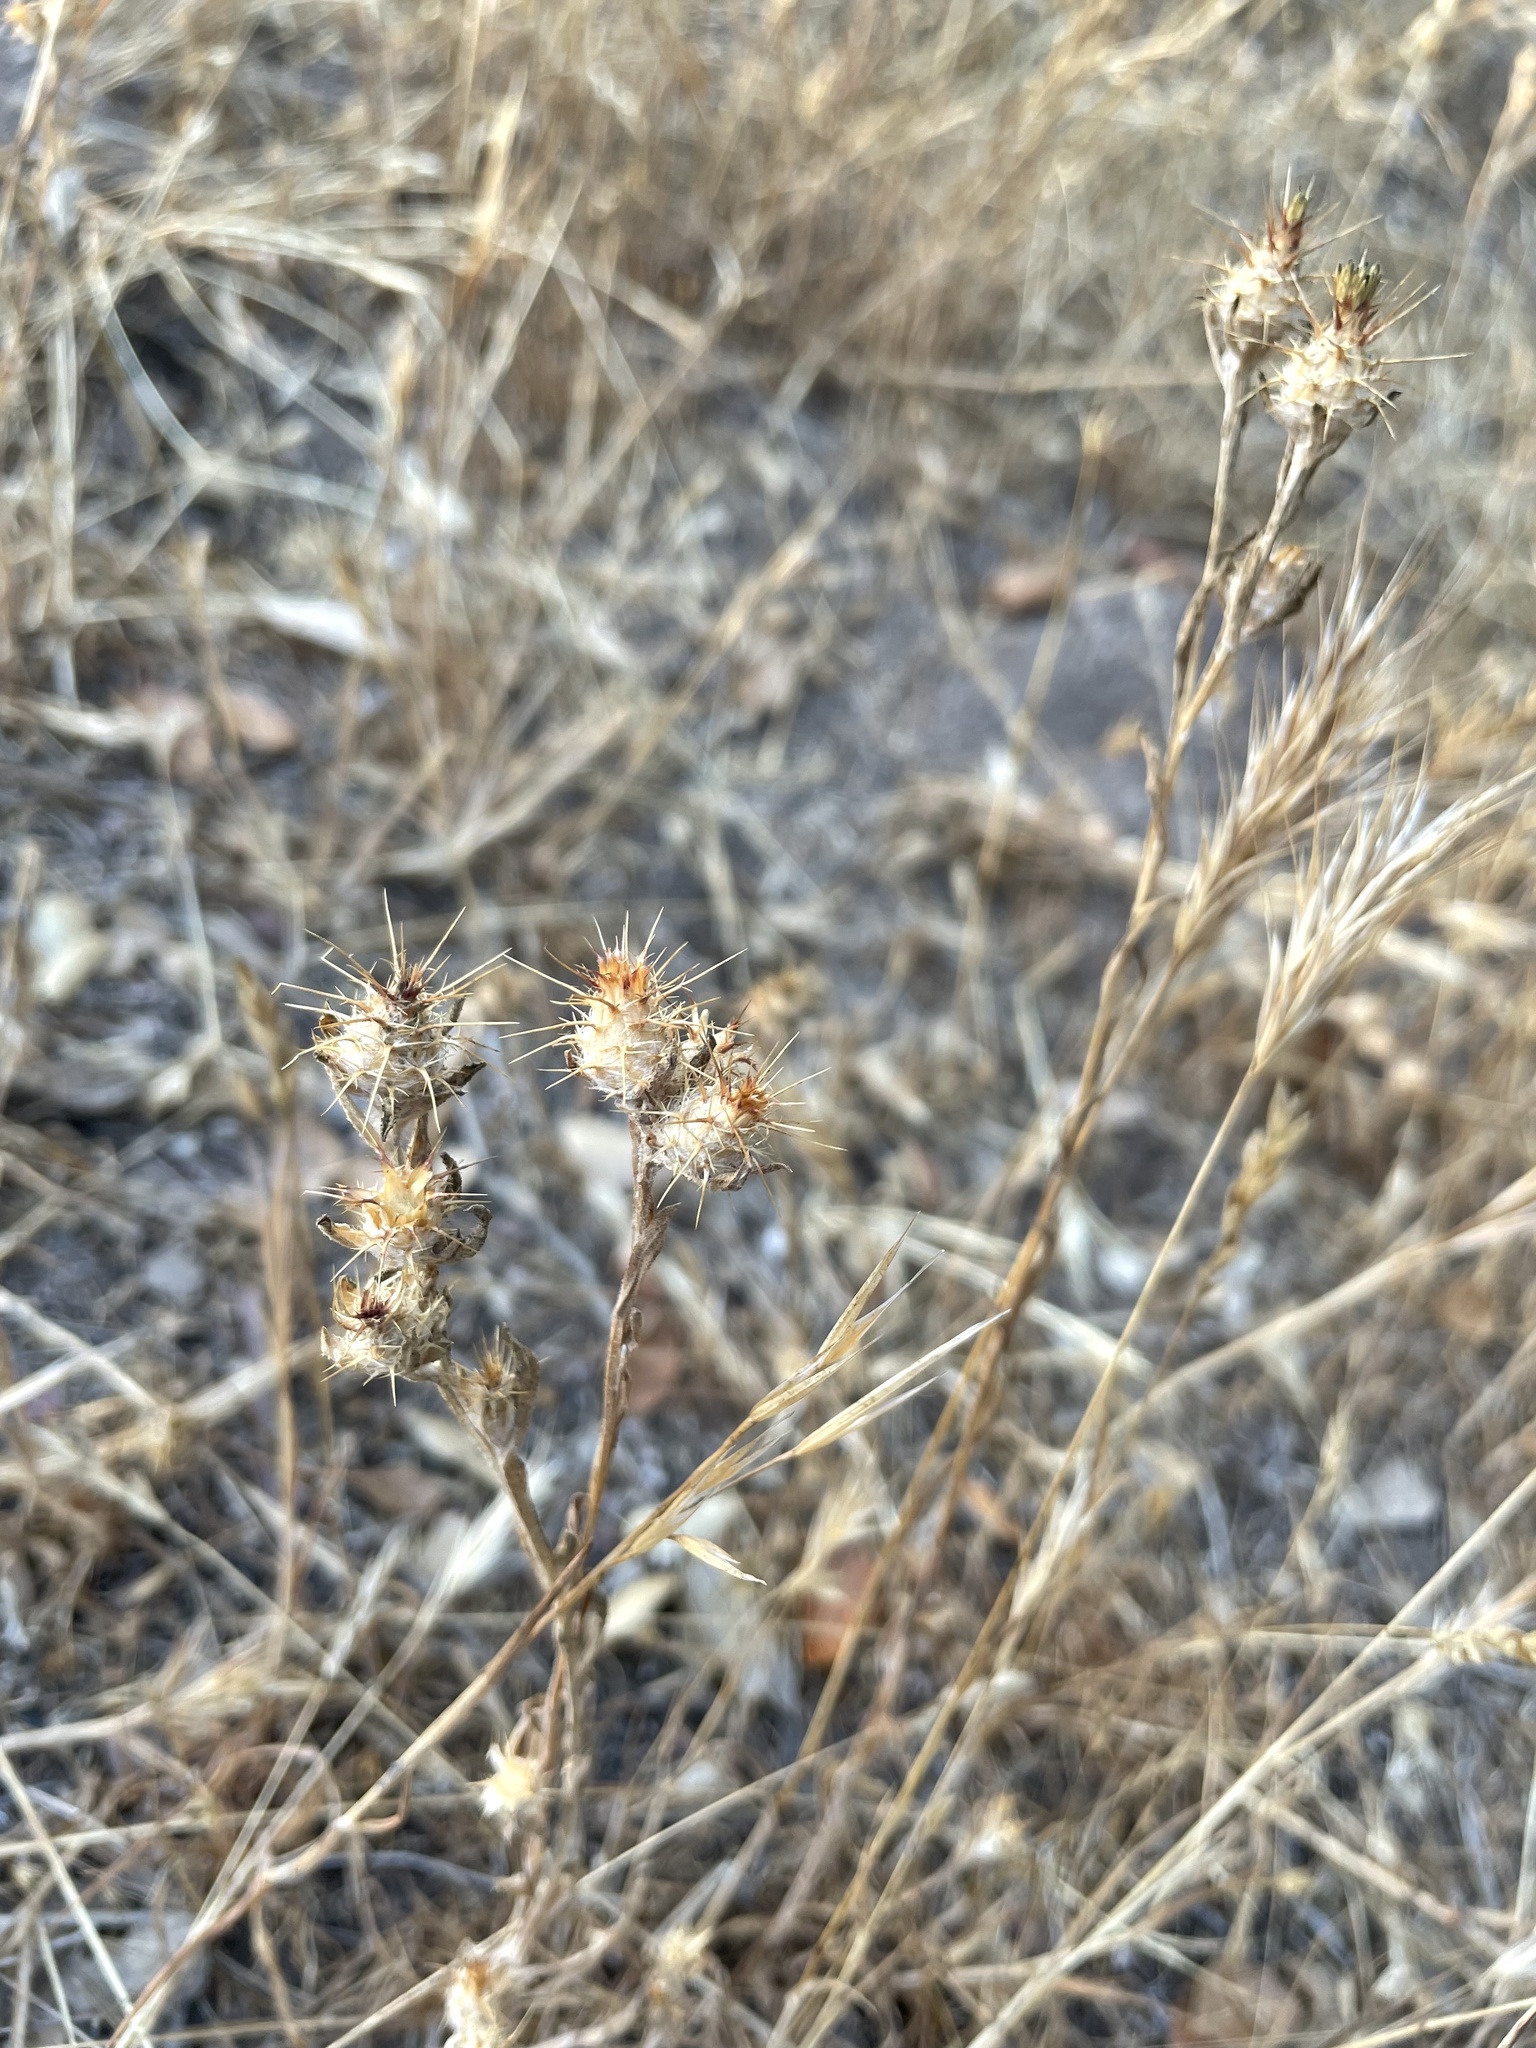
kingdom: Plantae
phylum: Tracheophyta
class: Magnoliopsida
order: Asterales
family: Asteraceae
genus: Centaurea
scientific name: Centaurea melitensis
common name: Maltese star-thistle
